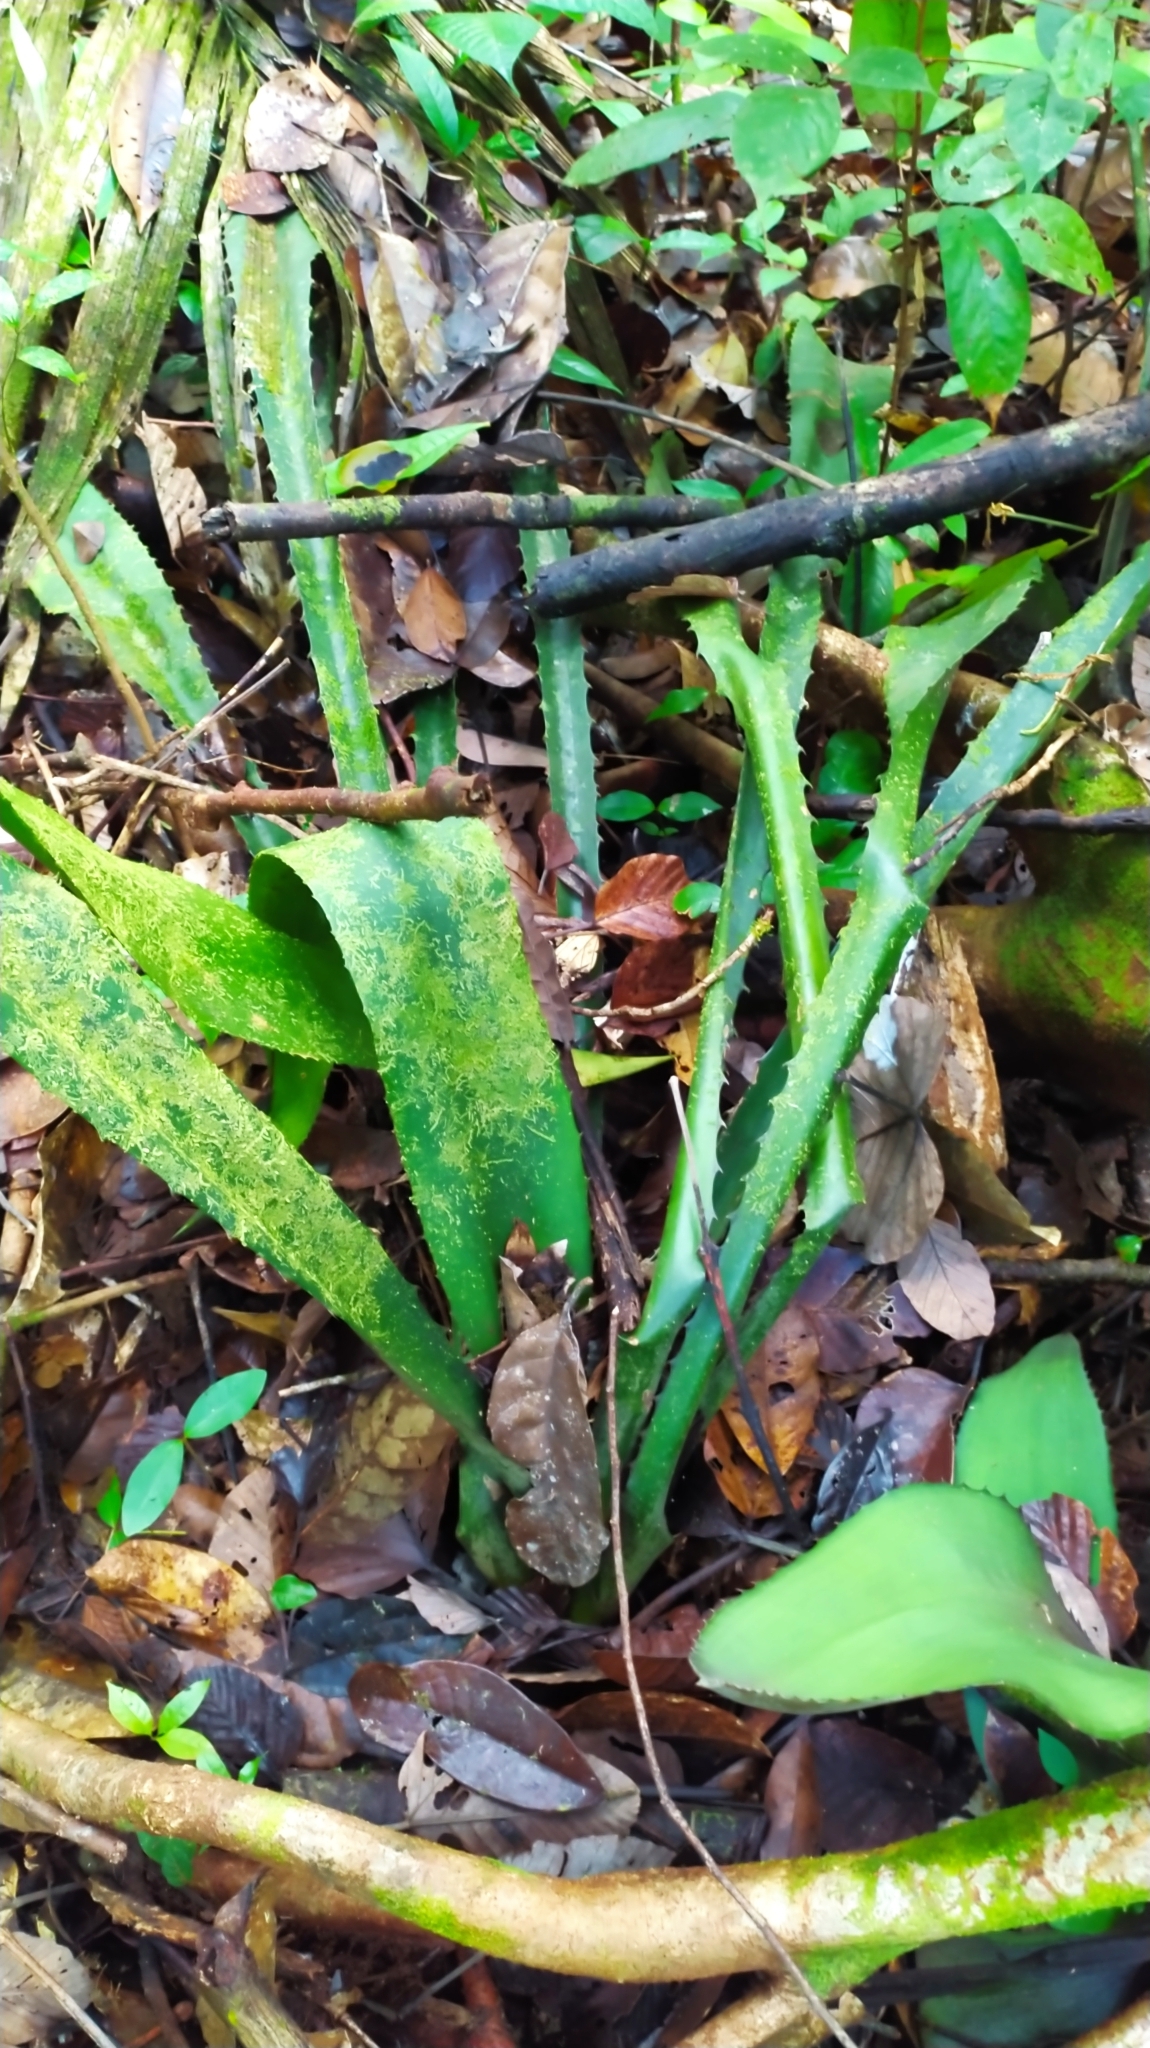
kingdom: Plantae
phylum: Tracheophyta
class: Liliopsida
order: Poales
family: Bromeliaceae
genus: Disteganthus
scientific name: Disteganthus gracieae
